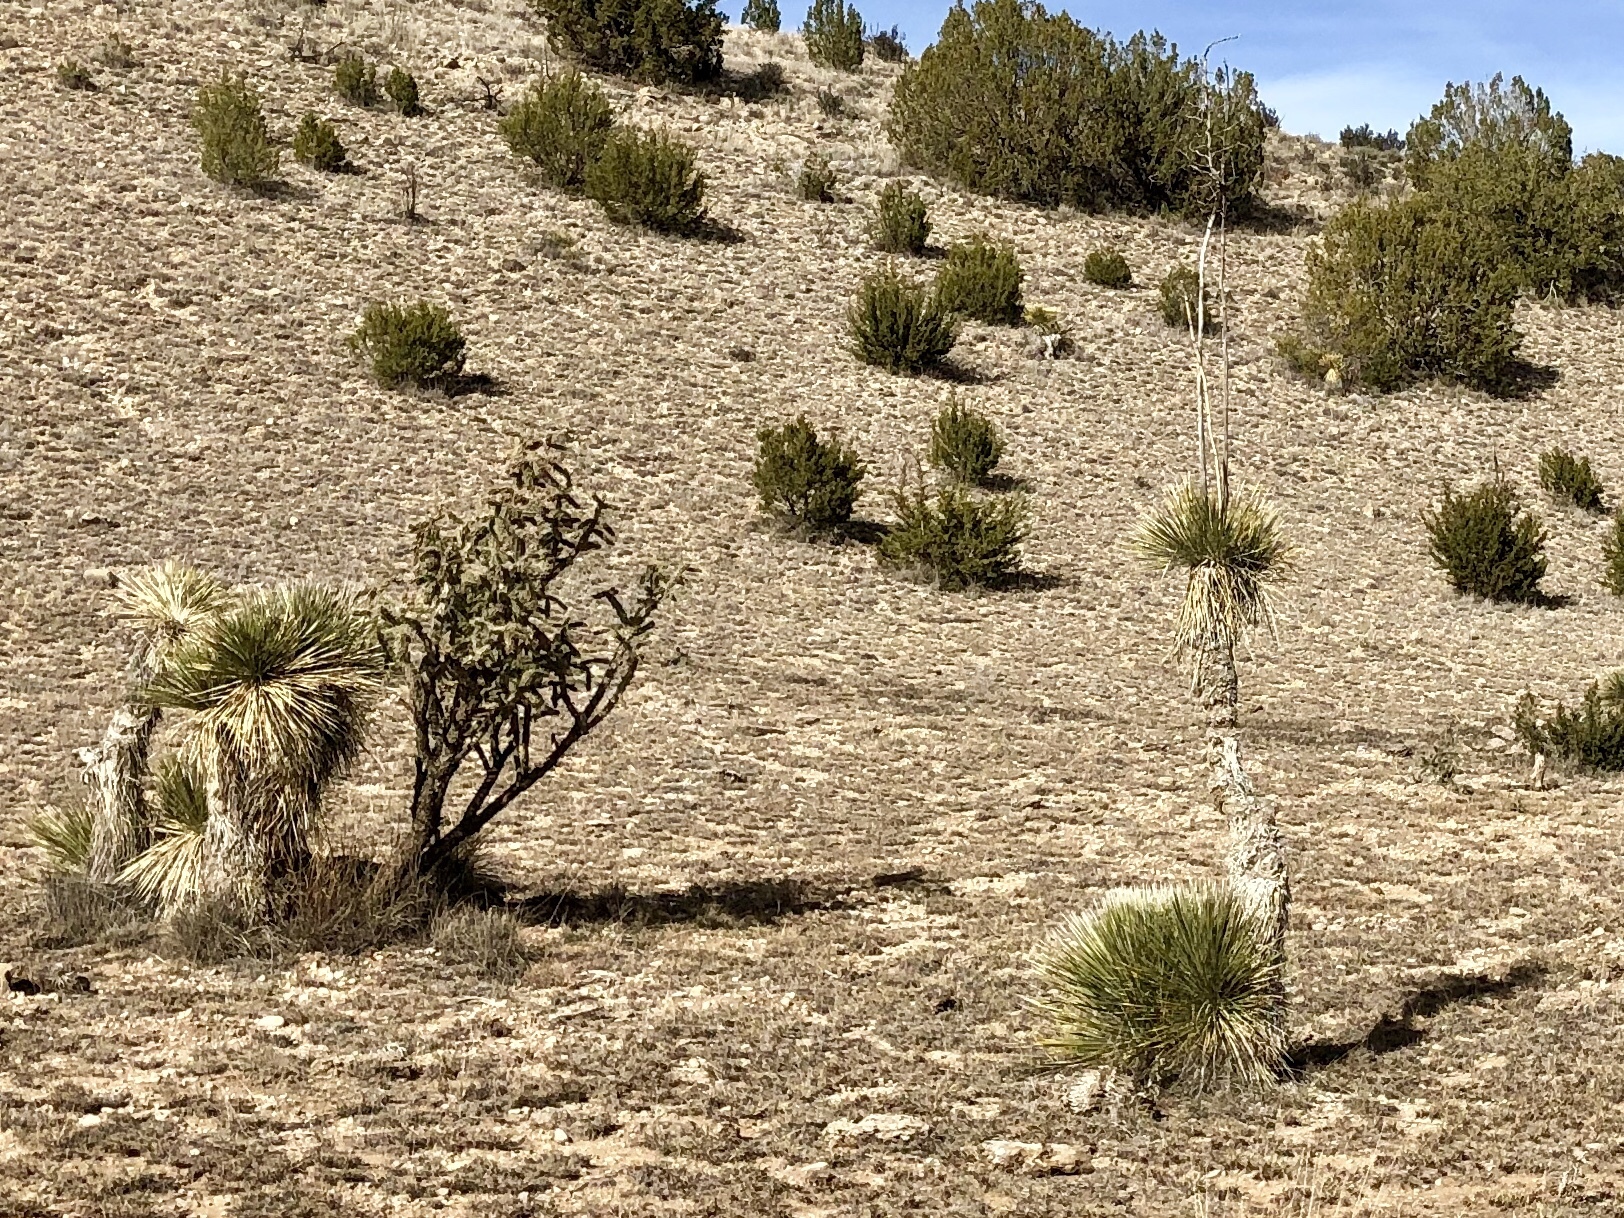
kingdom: Plantae
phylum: Tracheophyta
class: Liliopsida
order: Asparagales
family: Asparagaceae
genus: Yucca
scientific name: Yucca elata
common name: Palmella
